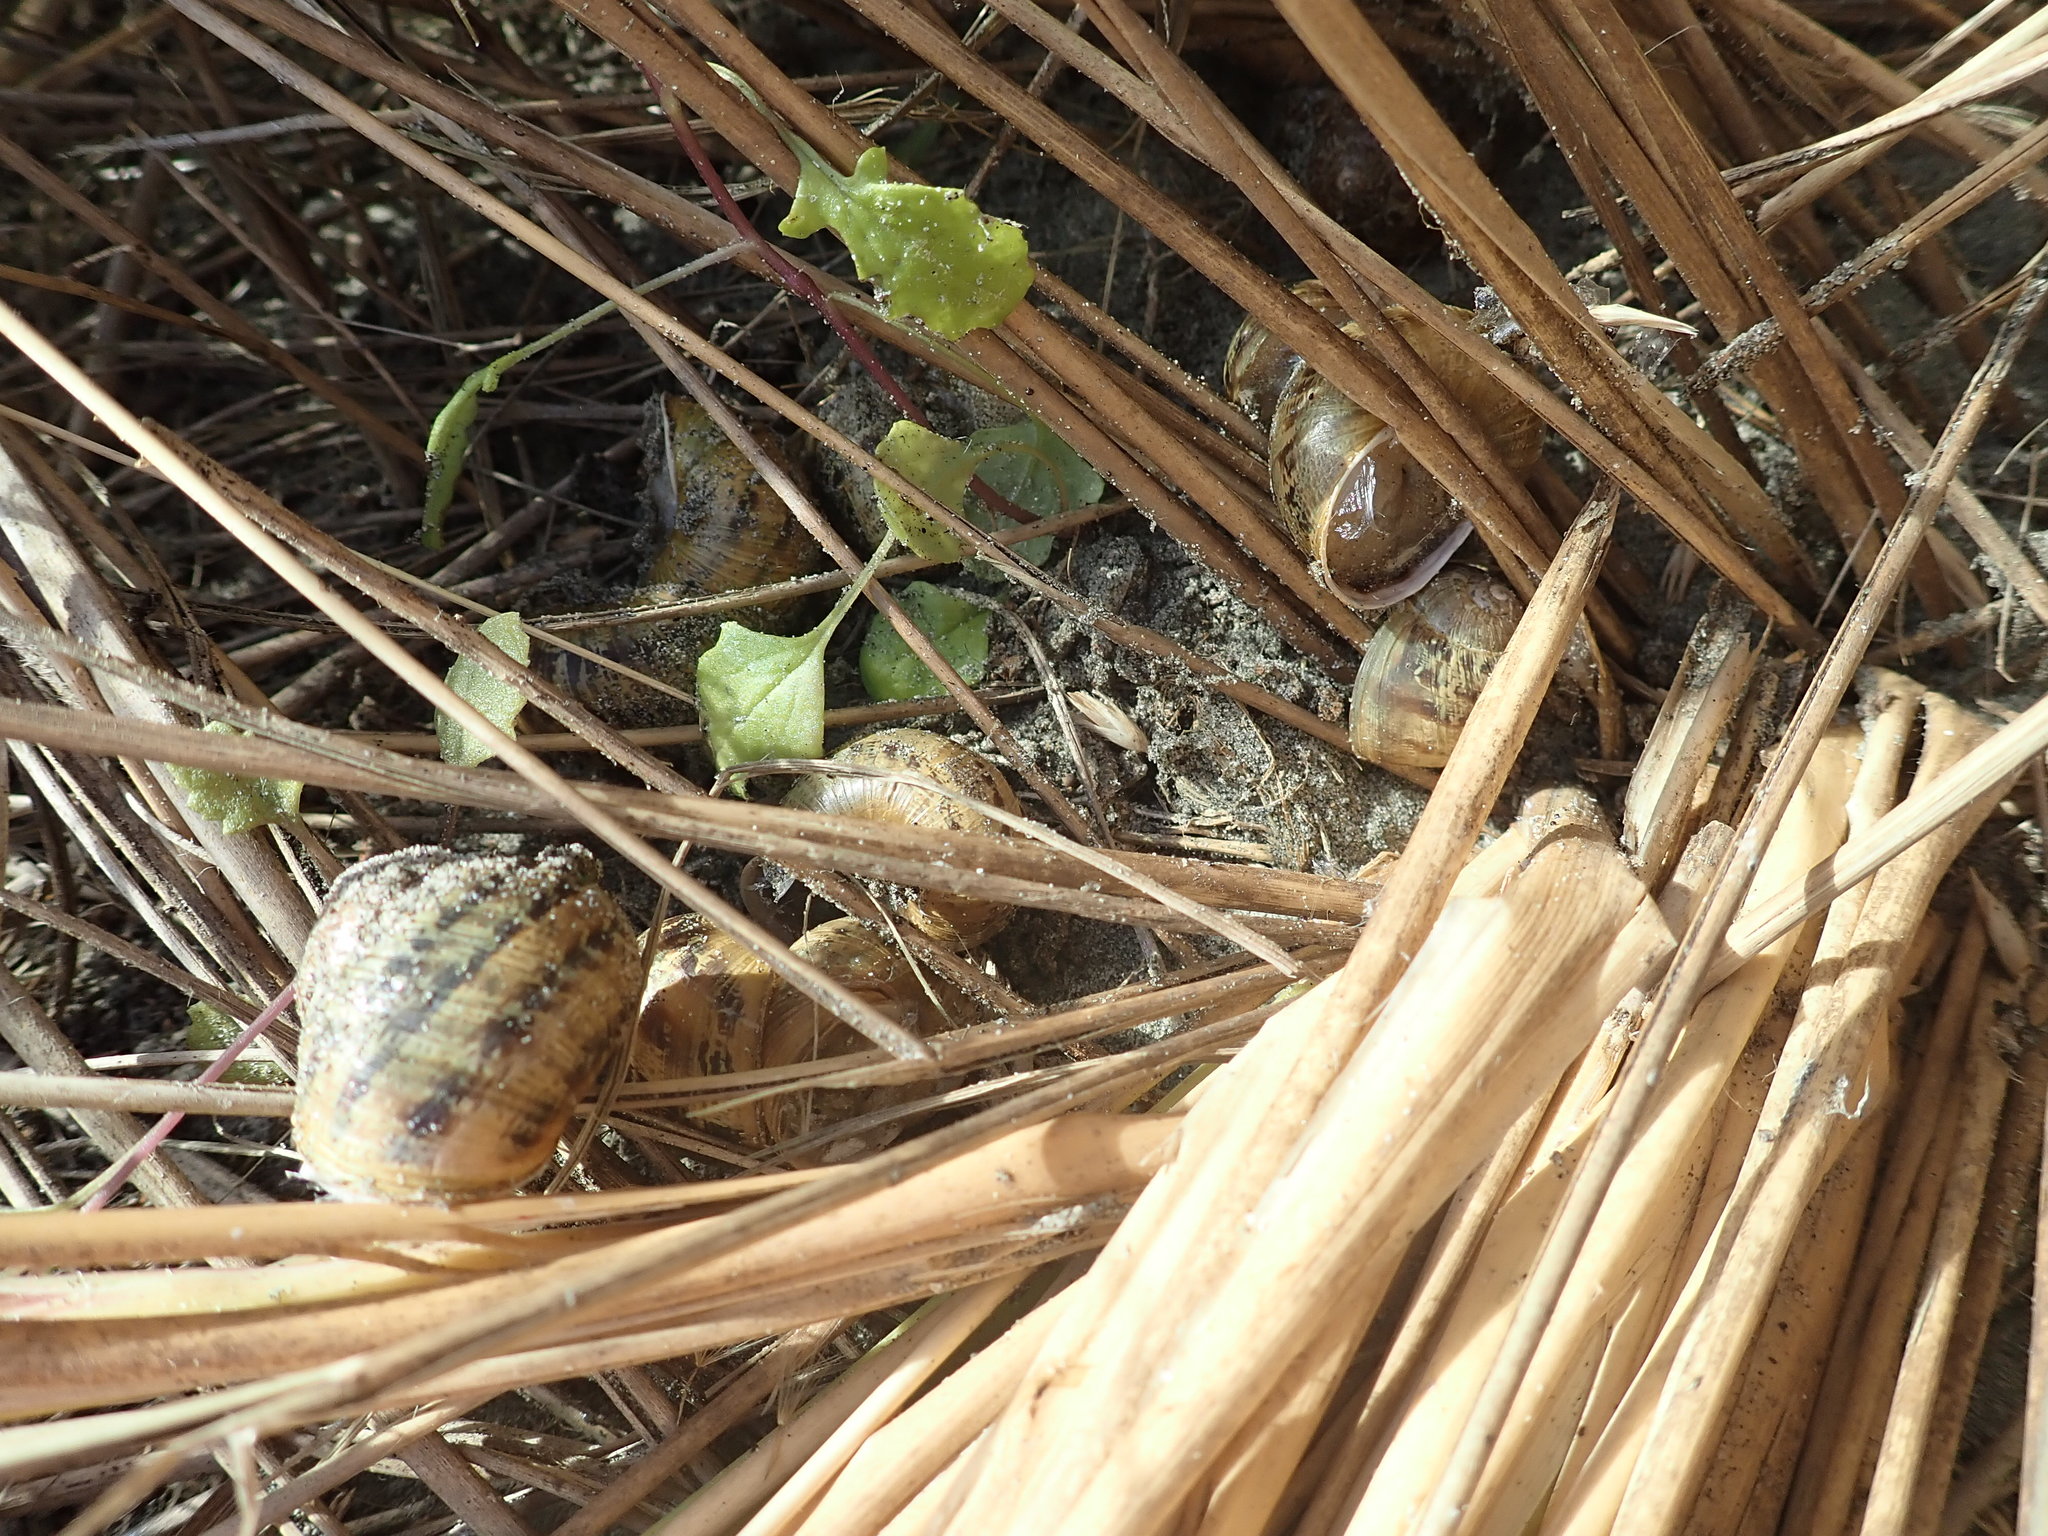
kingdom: Animalia
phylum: Mollusca
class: Gastropoda
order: Stylommatophora
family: Helicidae
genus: Cornu
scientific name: Cornu aspersum
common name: Brown garden snail
